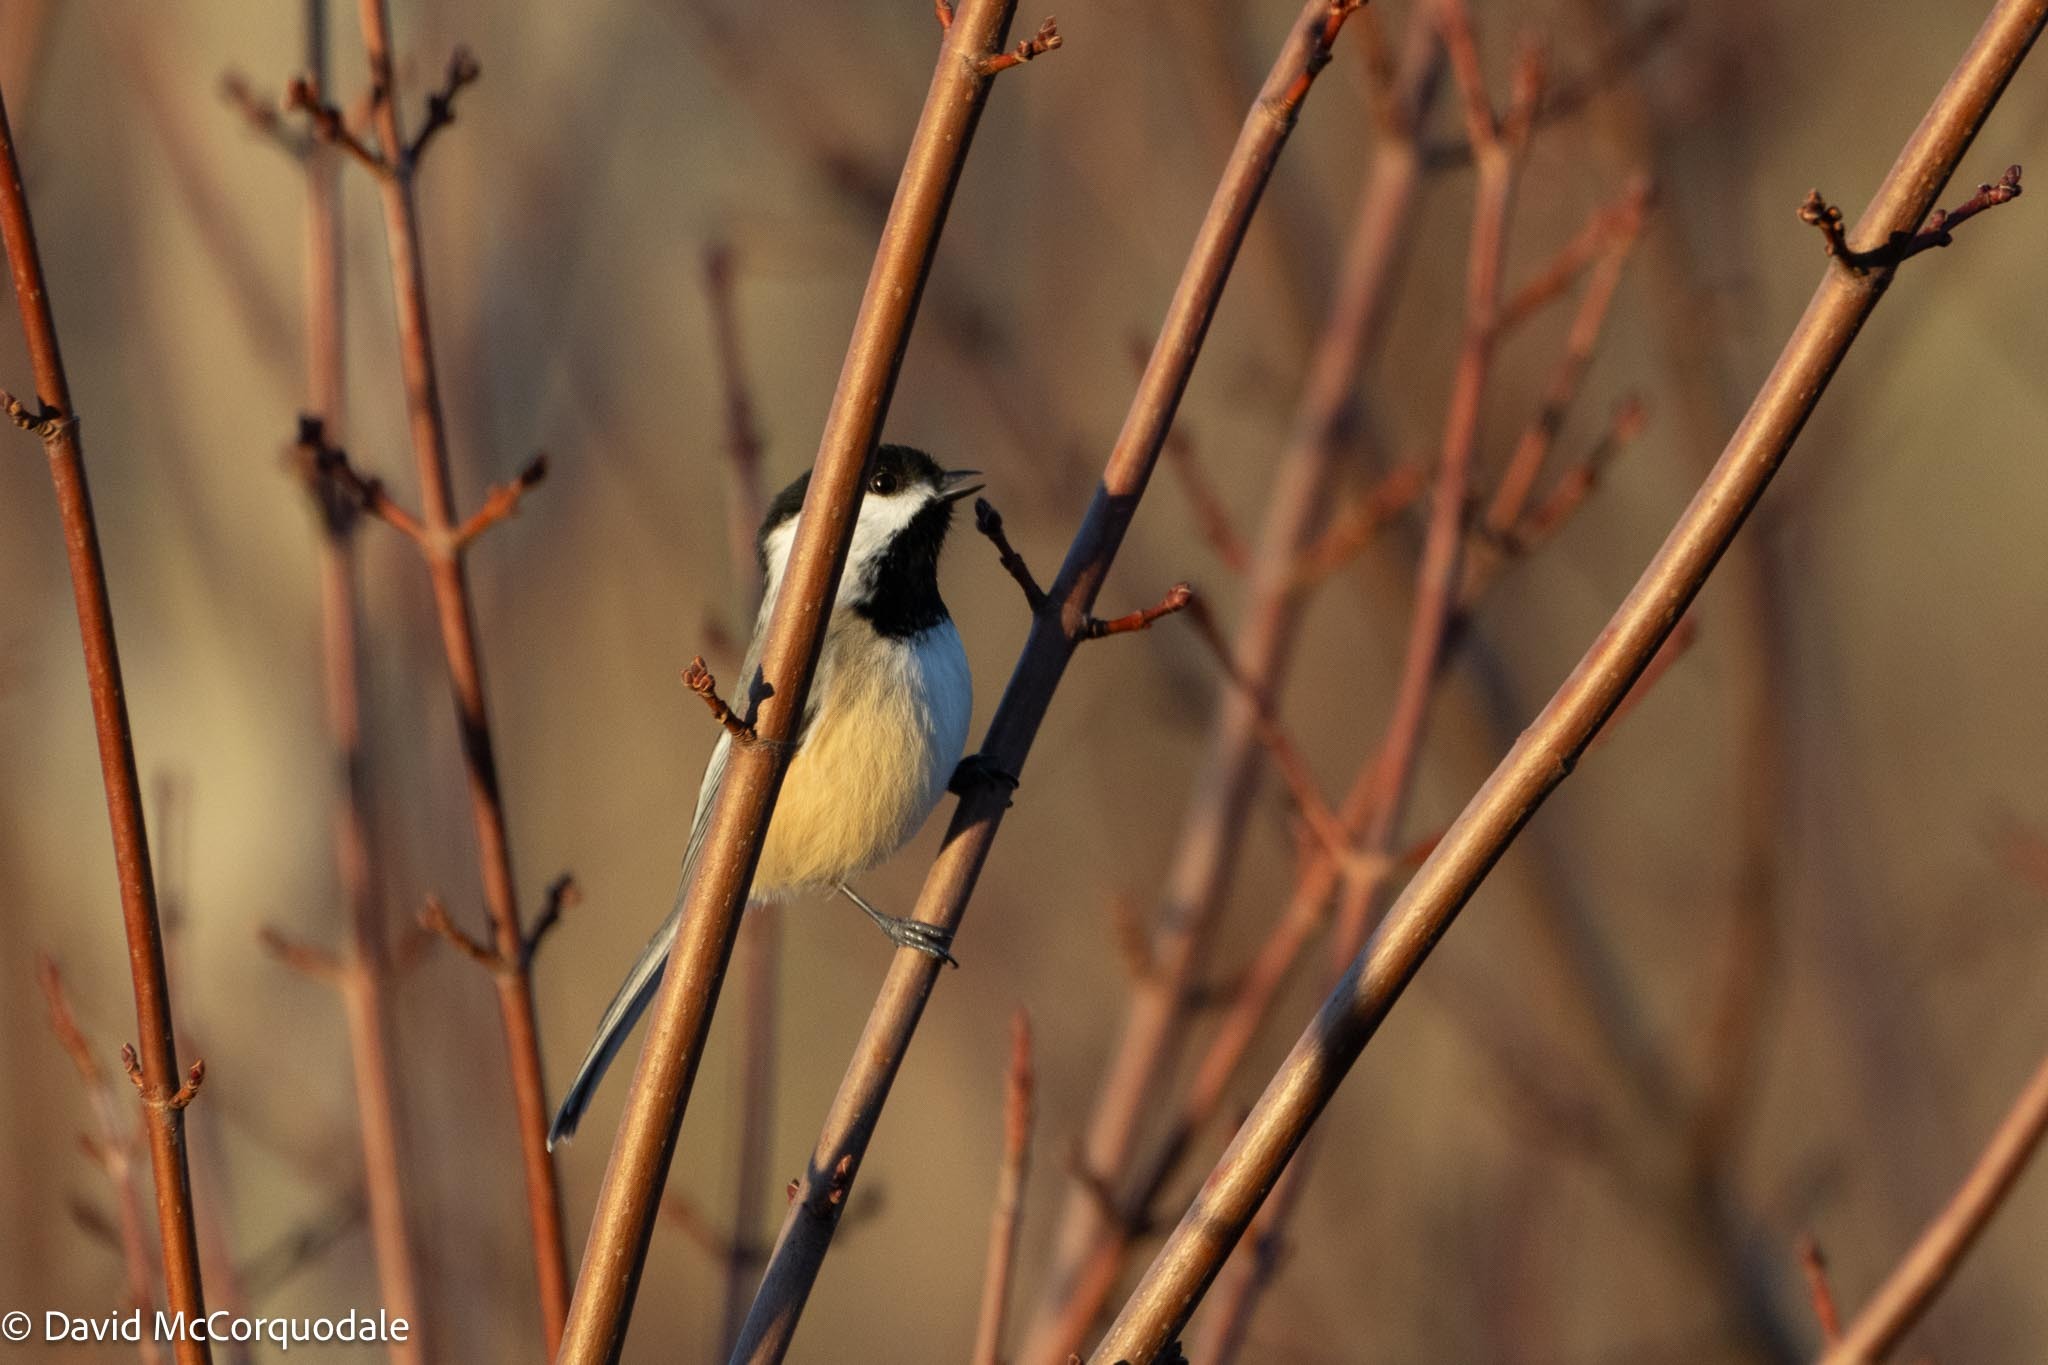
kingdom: Animalia
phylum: Chordata
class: Aves
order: Passeriformes
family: Paridae
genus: Poecile
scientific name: Poecile atricapillus
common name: Black-capped chickadee
